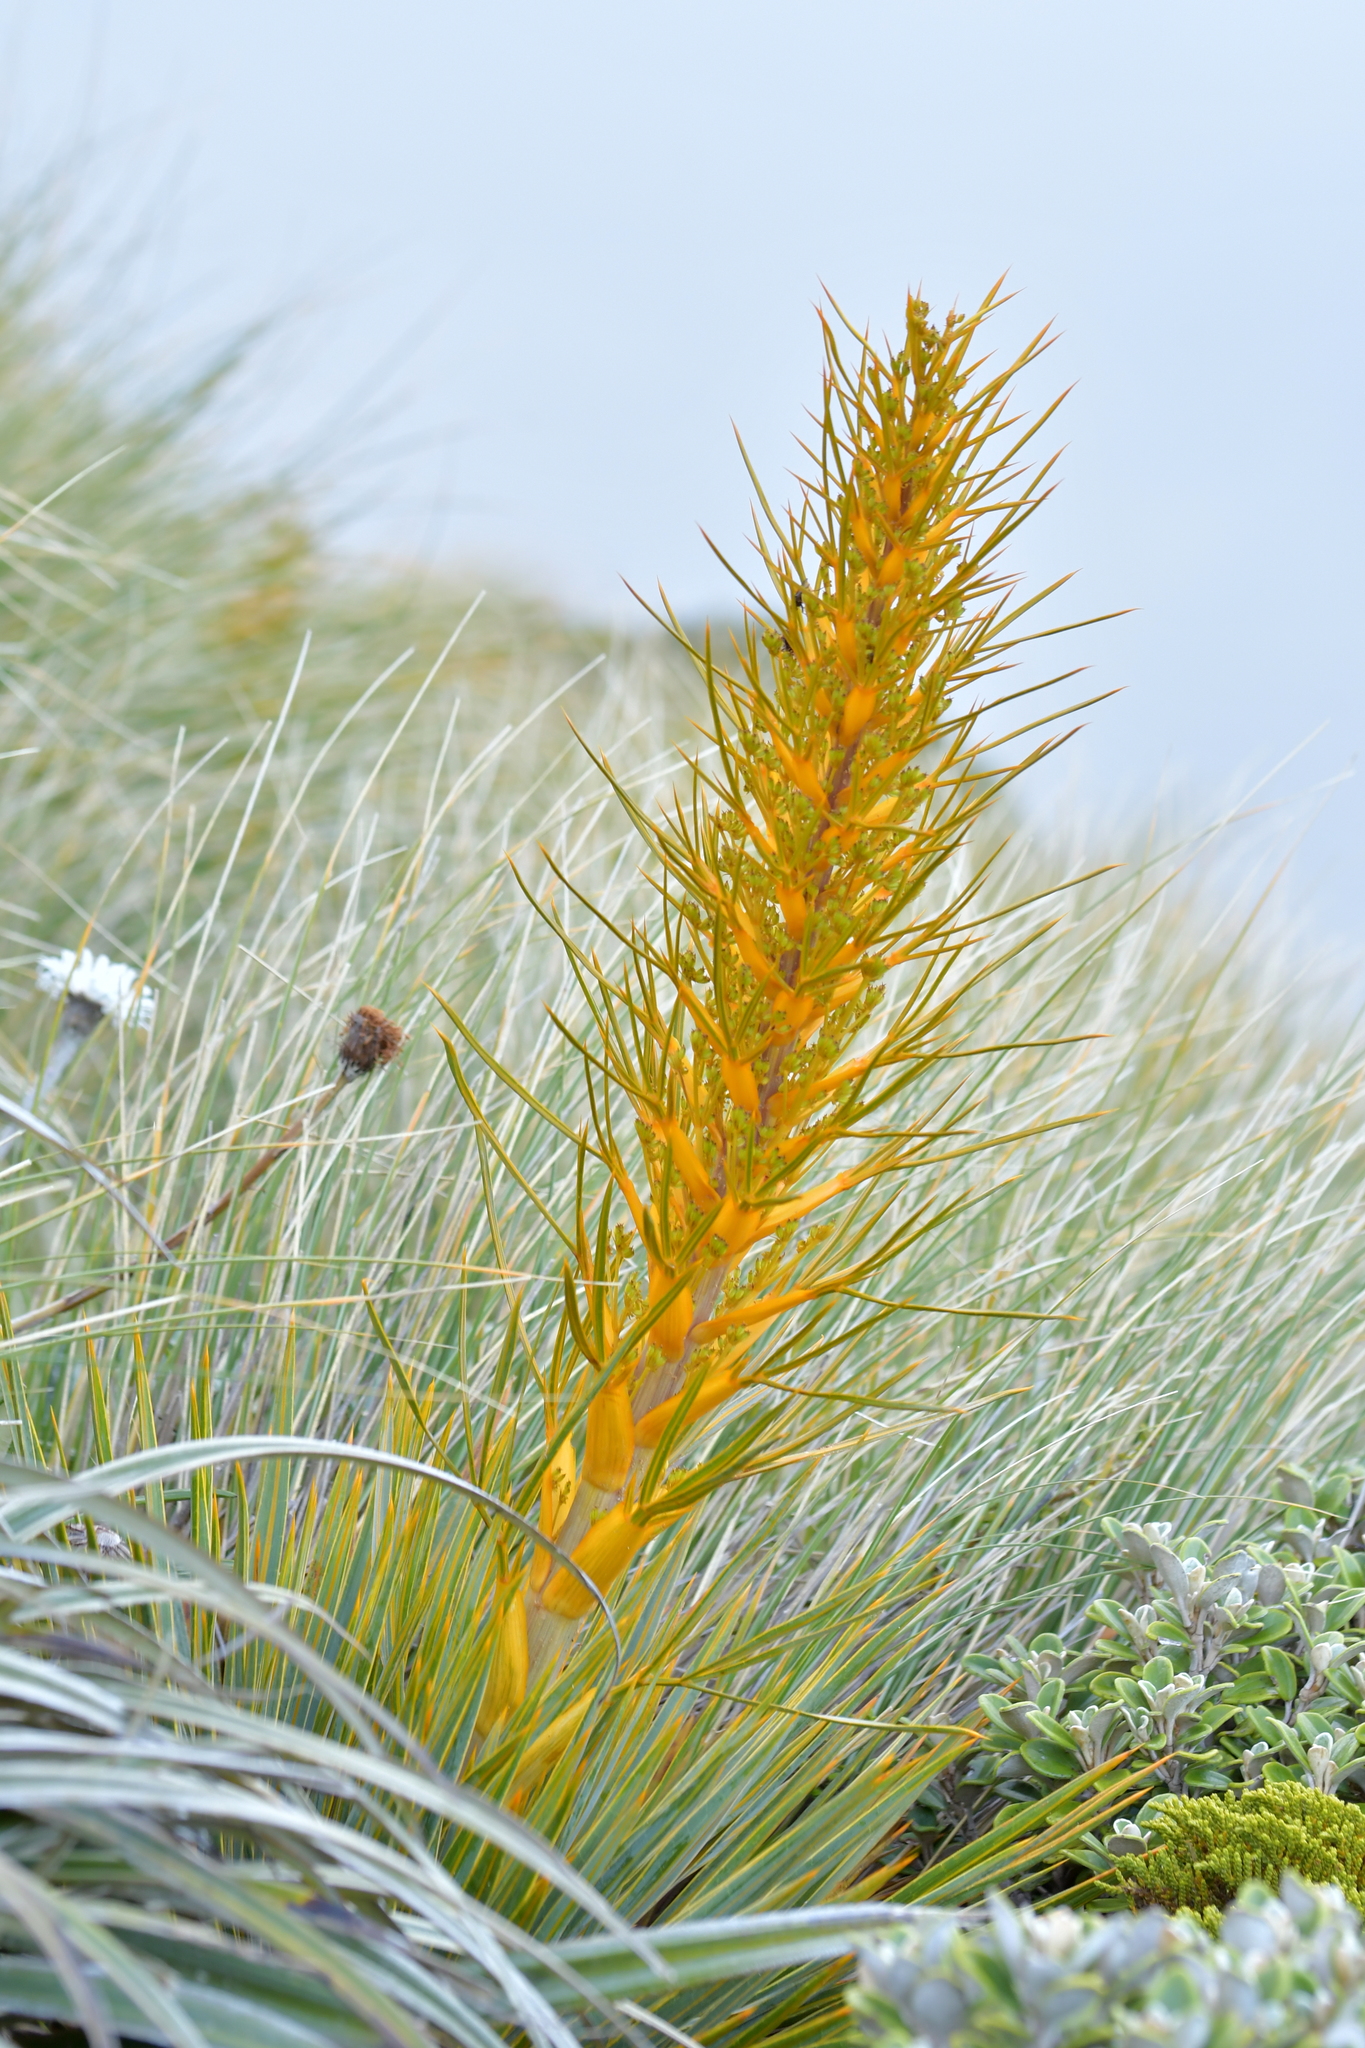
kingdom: Plantae
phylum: Tracheophyta
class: Magnoliopsida
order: Apiales
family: Apiaceae
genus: Aciphylla
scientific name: Aciphylla colensoi
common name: Colenso's spaniard
